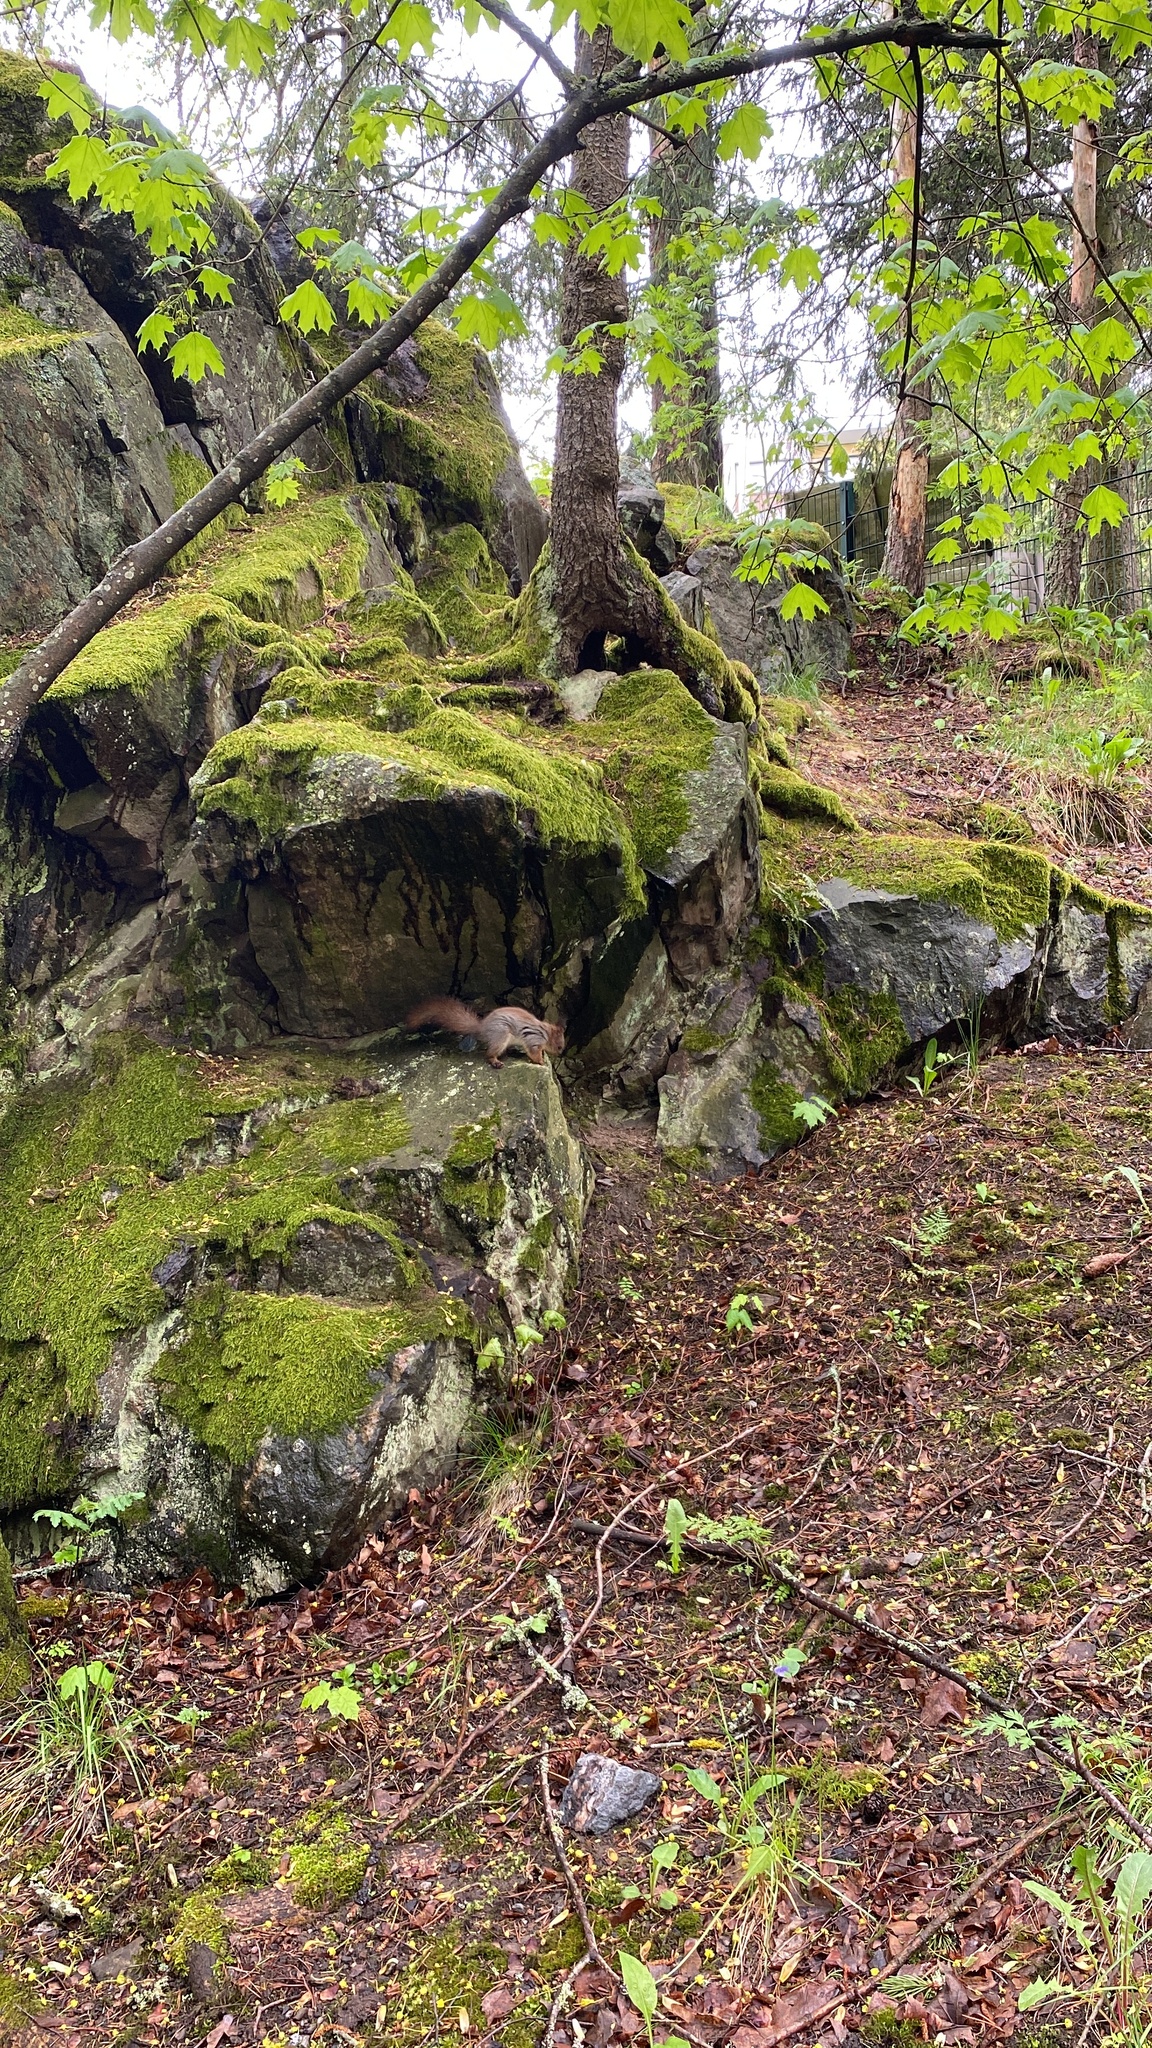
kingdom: Animalia
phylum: Chordata
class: Mammalia
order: Rodentia
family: Sciuridae
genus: Sciurus
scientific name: Sciurus vulgaris
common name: Eurasian red squirrel
